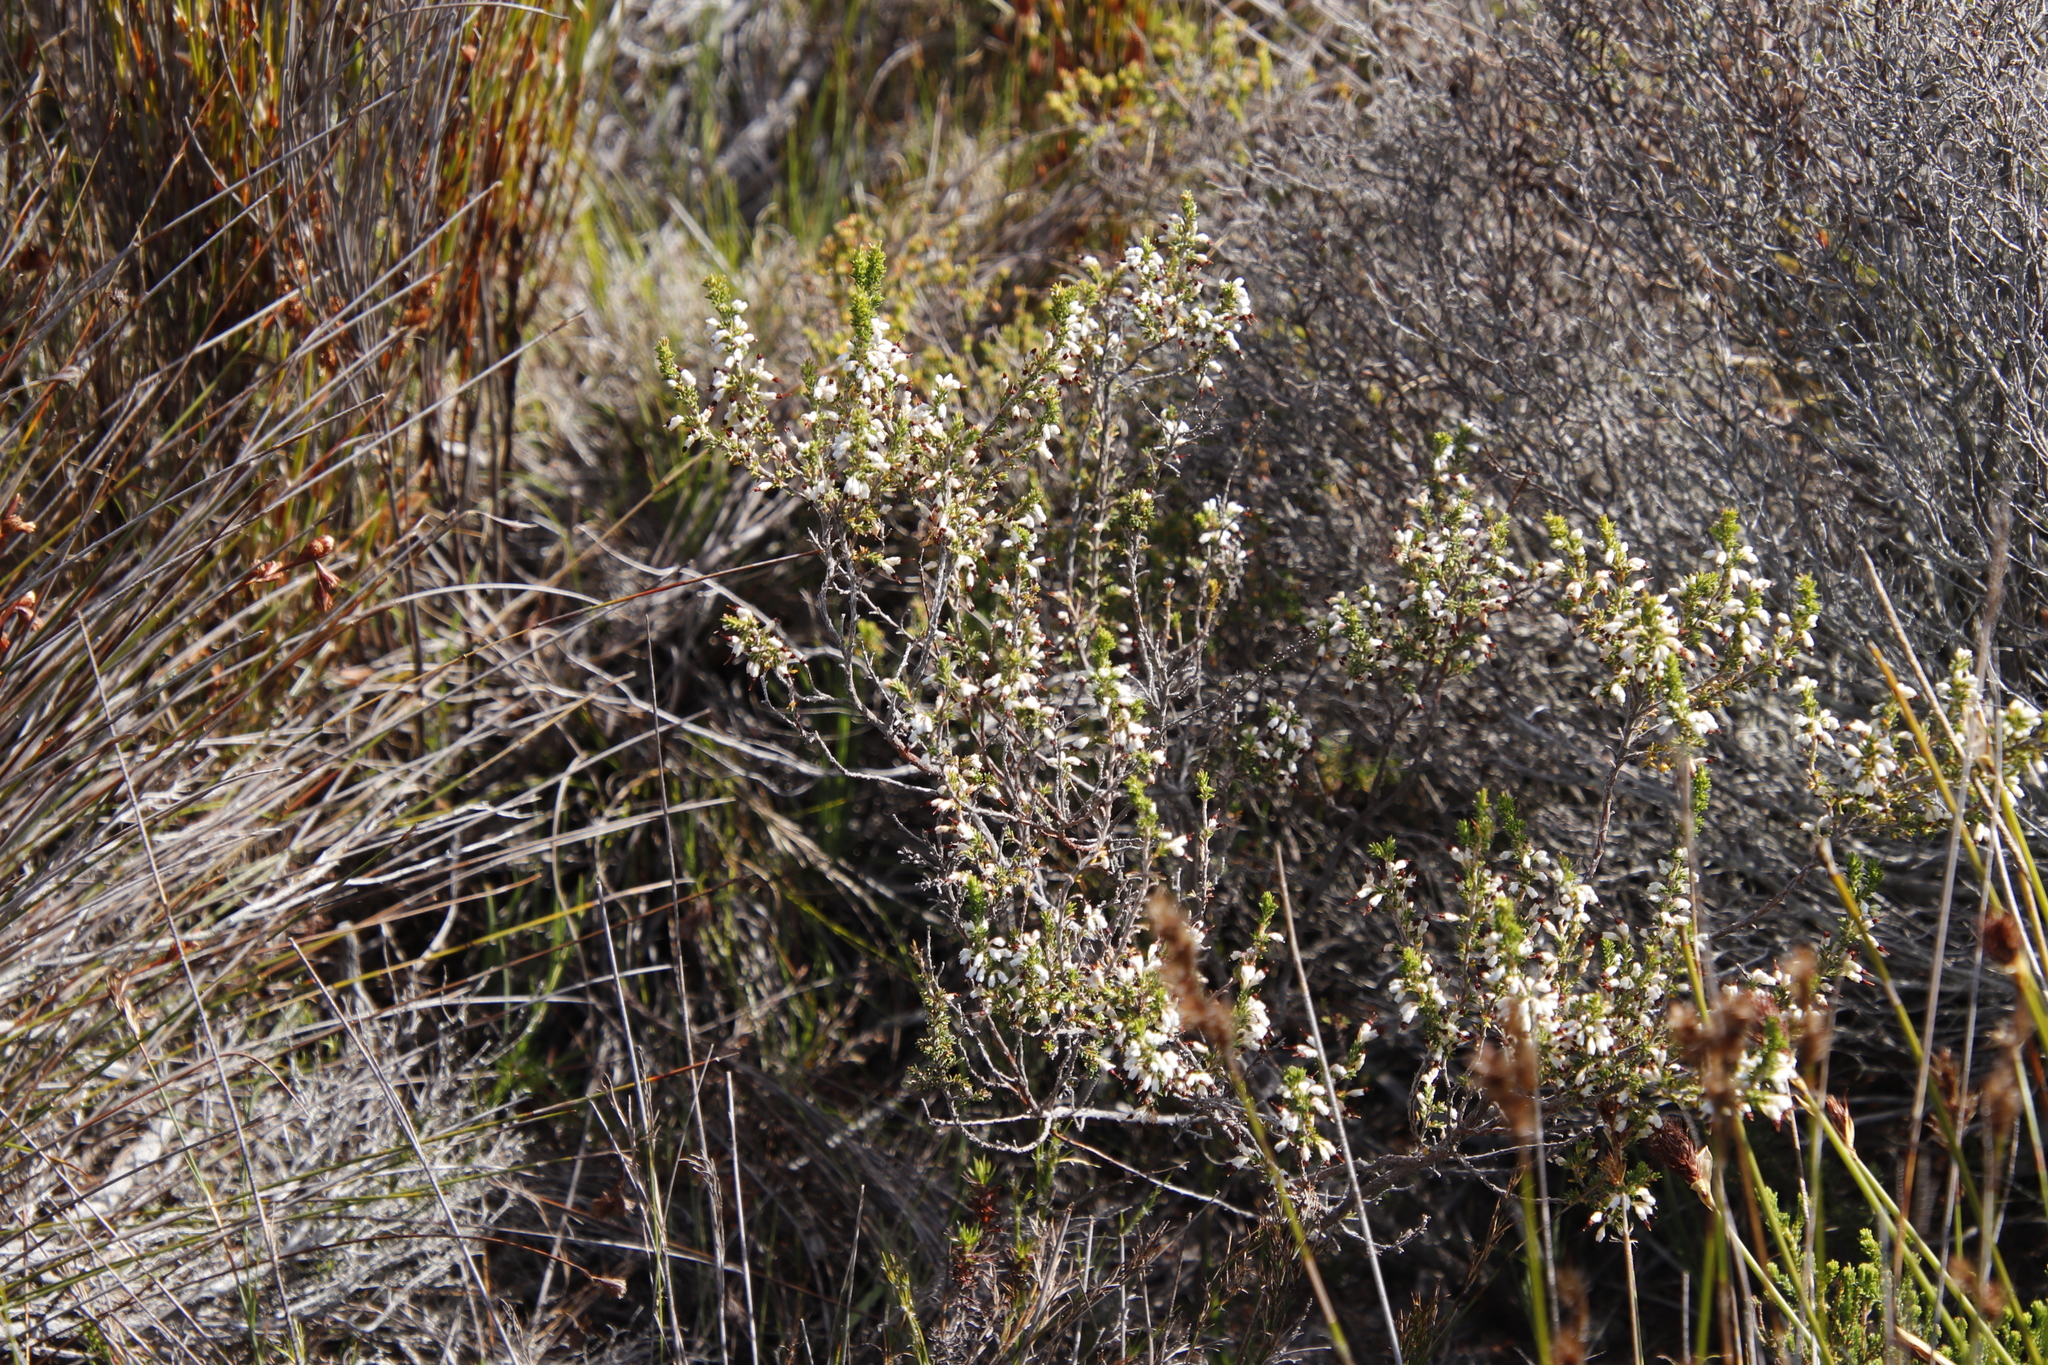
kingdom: Plantae
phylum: Tracheophyta
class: Magnoliopsida
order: Ericales
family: Ericaceae
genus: Erica
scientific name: Erica imbricata
